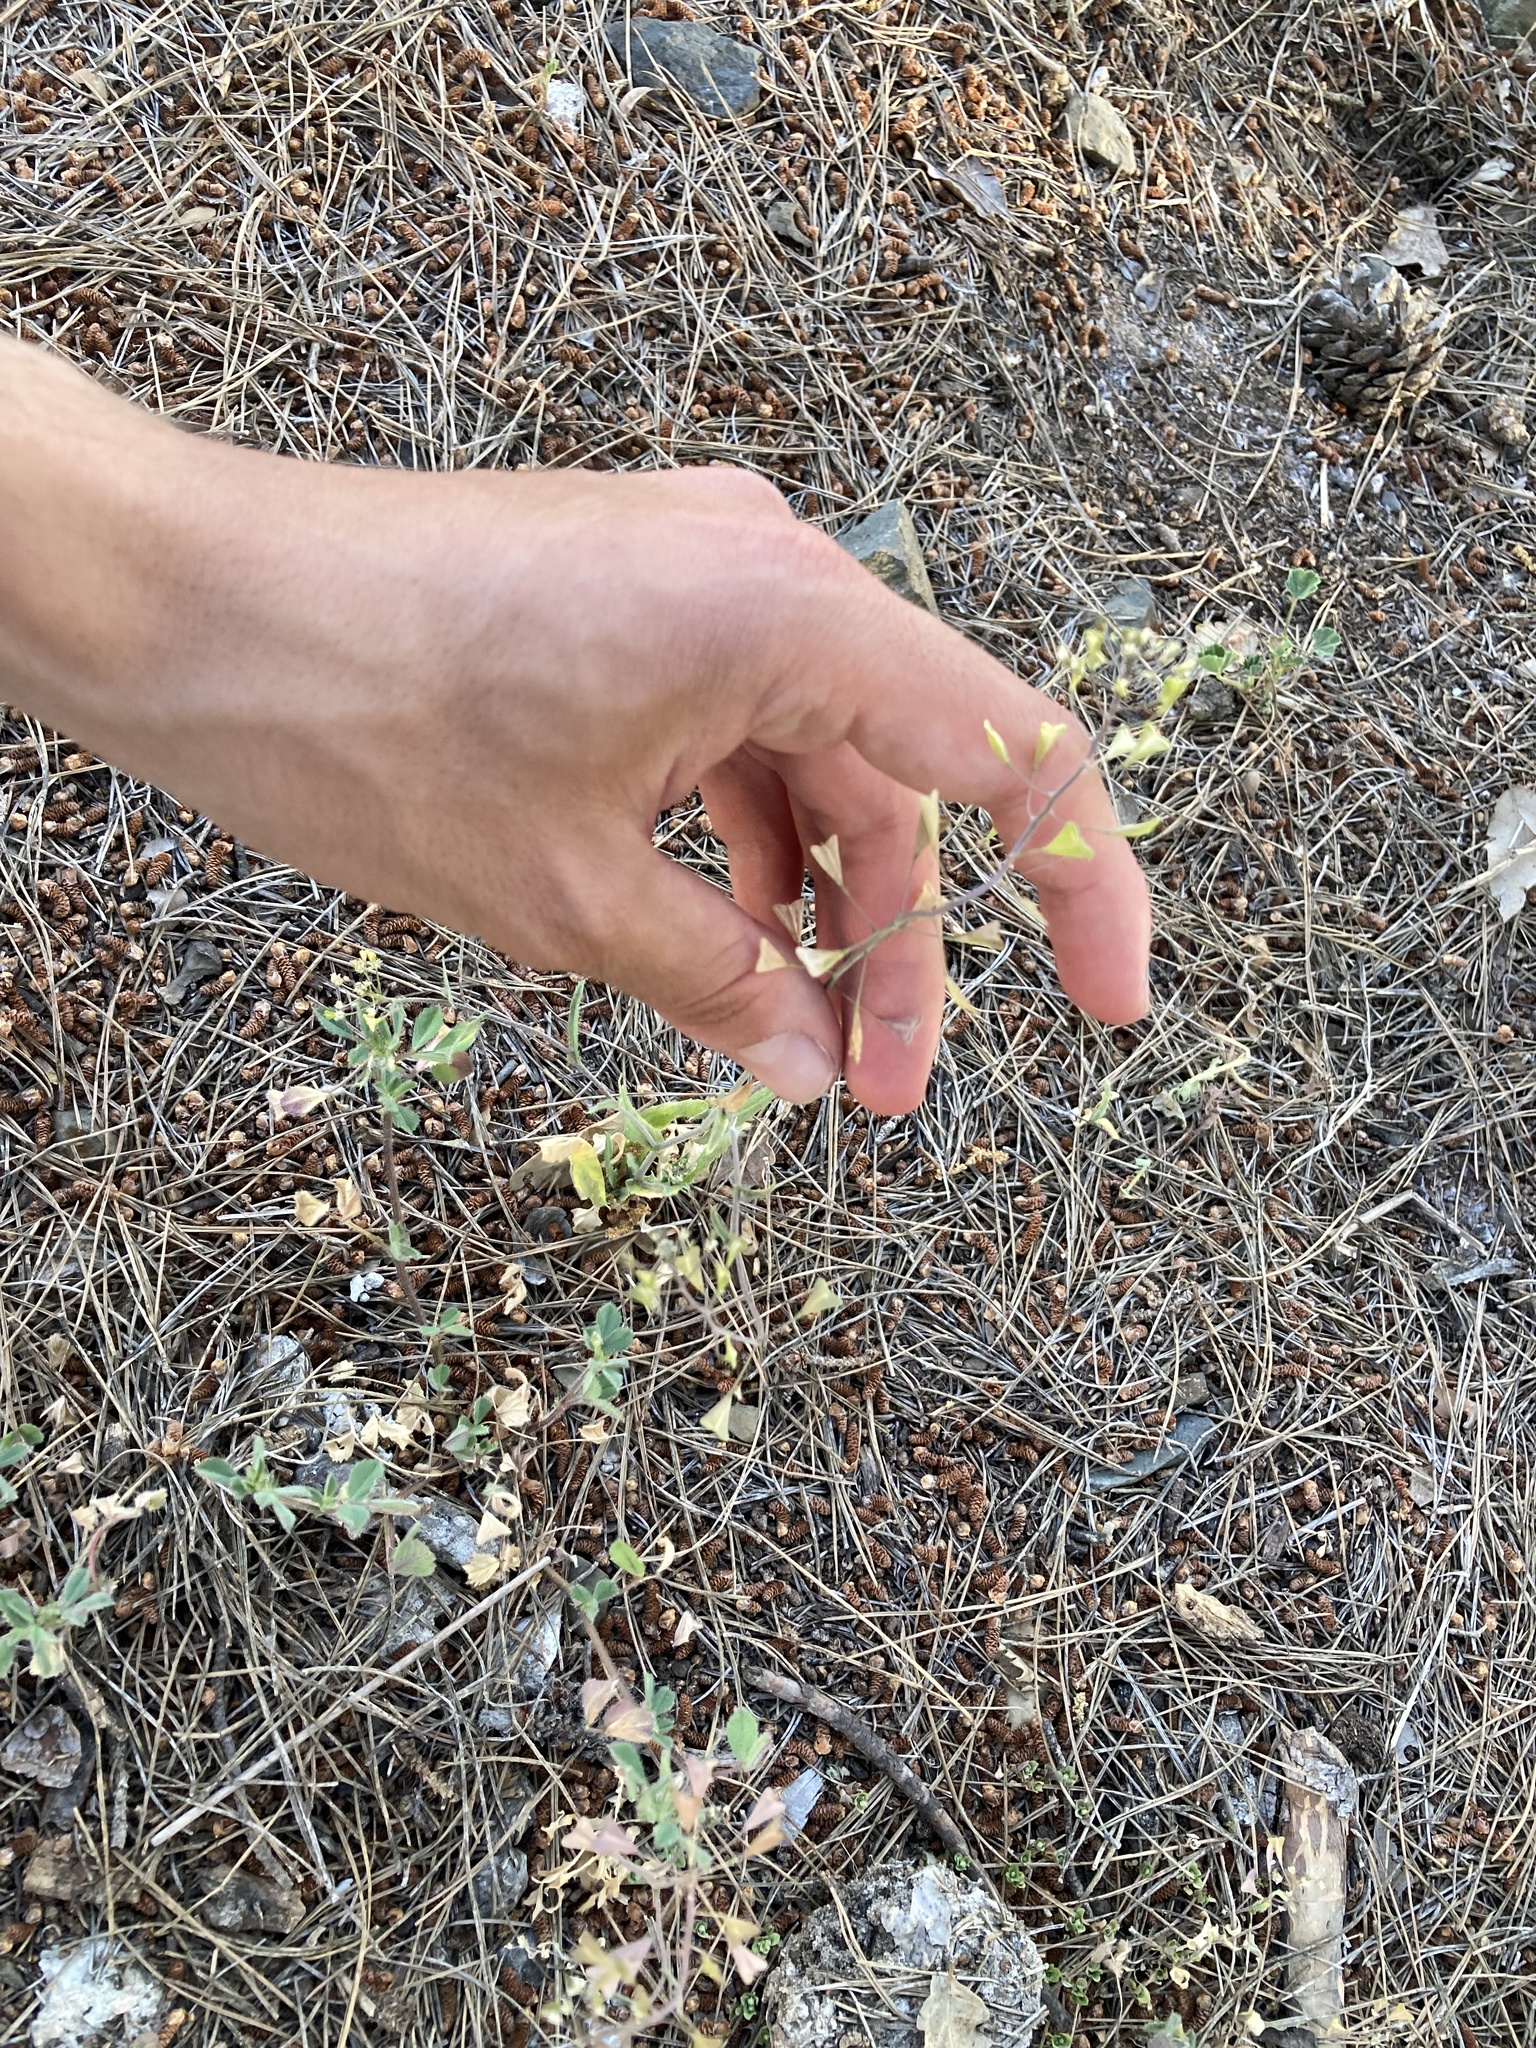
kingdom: Plantae
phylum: Tracheophyta
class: Magnoliopsida
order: Brassicales
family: Brassicaceae
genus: Capsella
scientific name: Capsella bursa-pastoris
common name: Shepherd's purse
